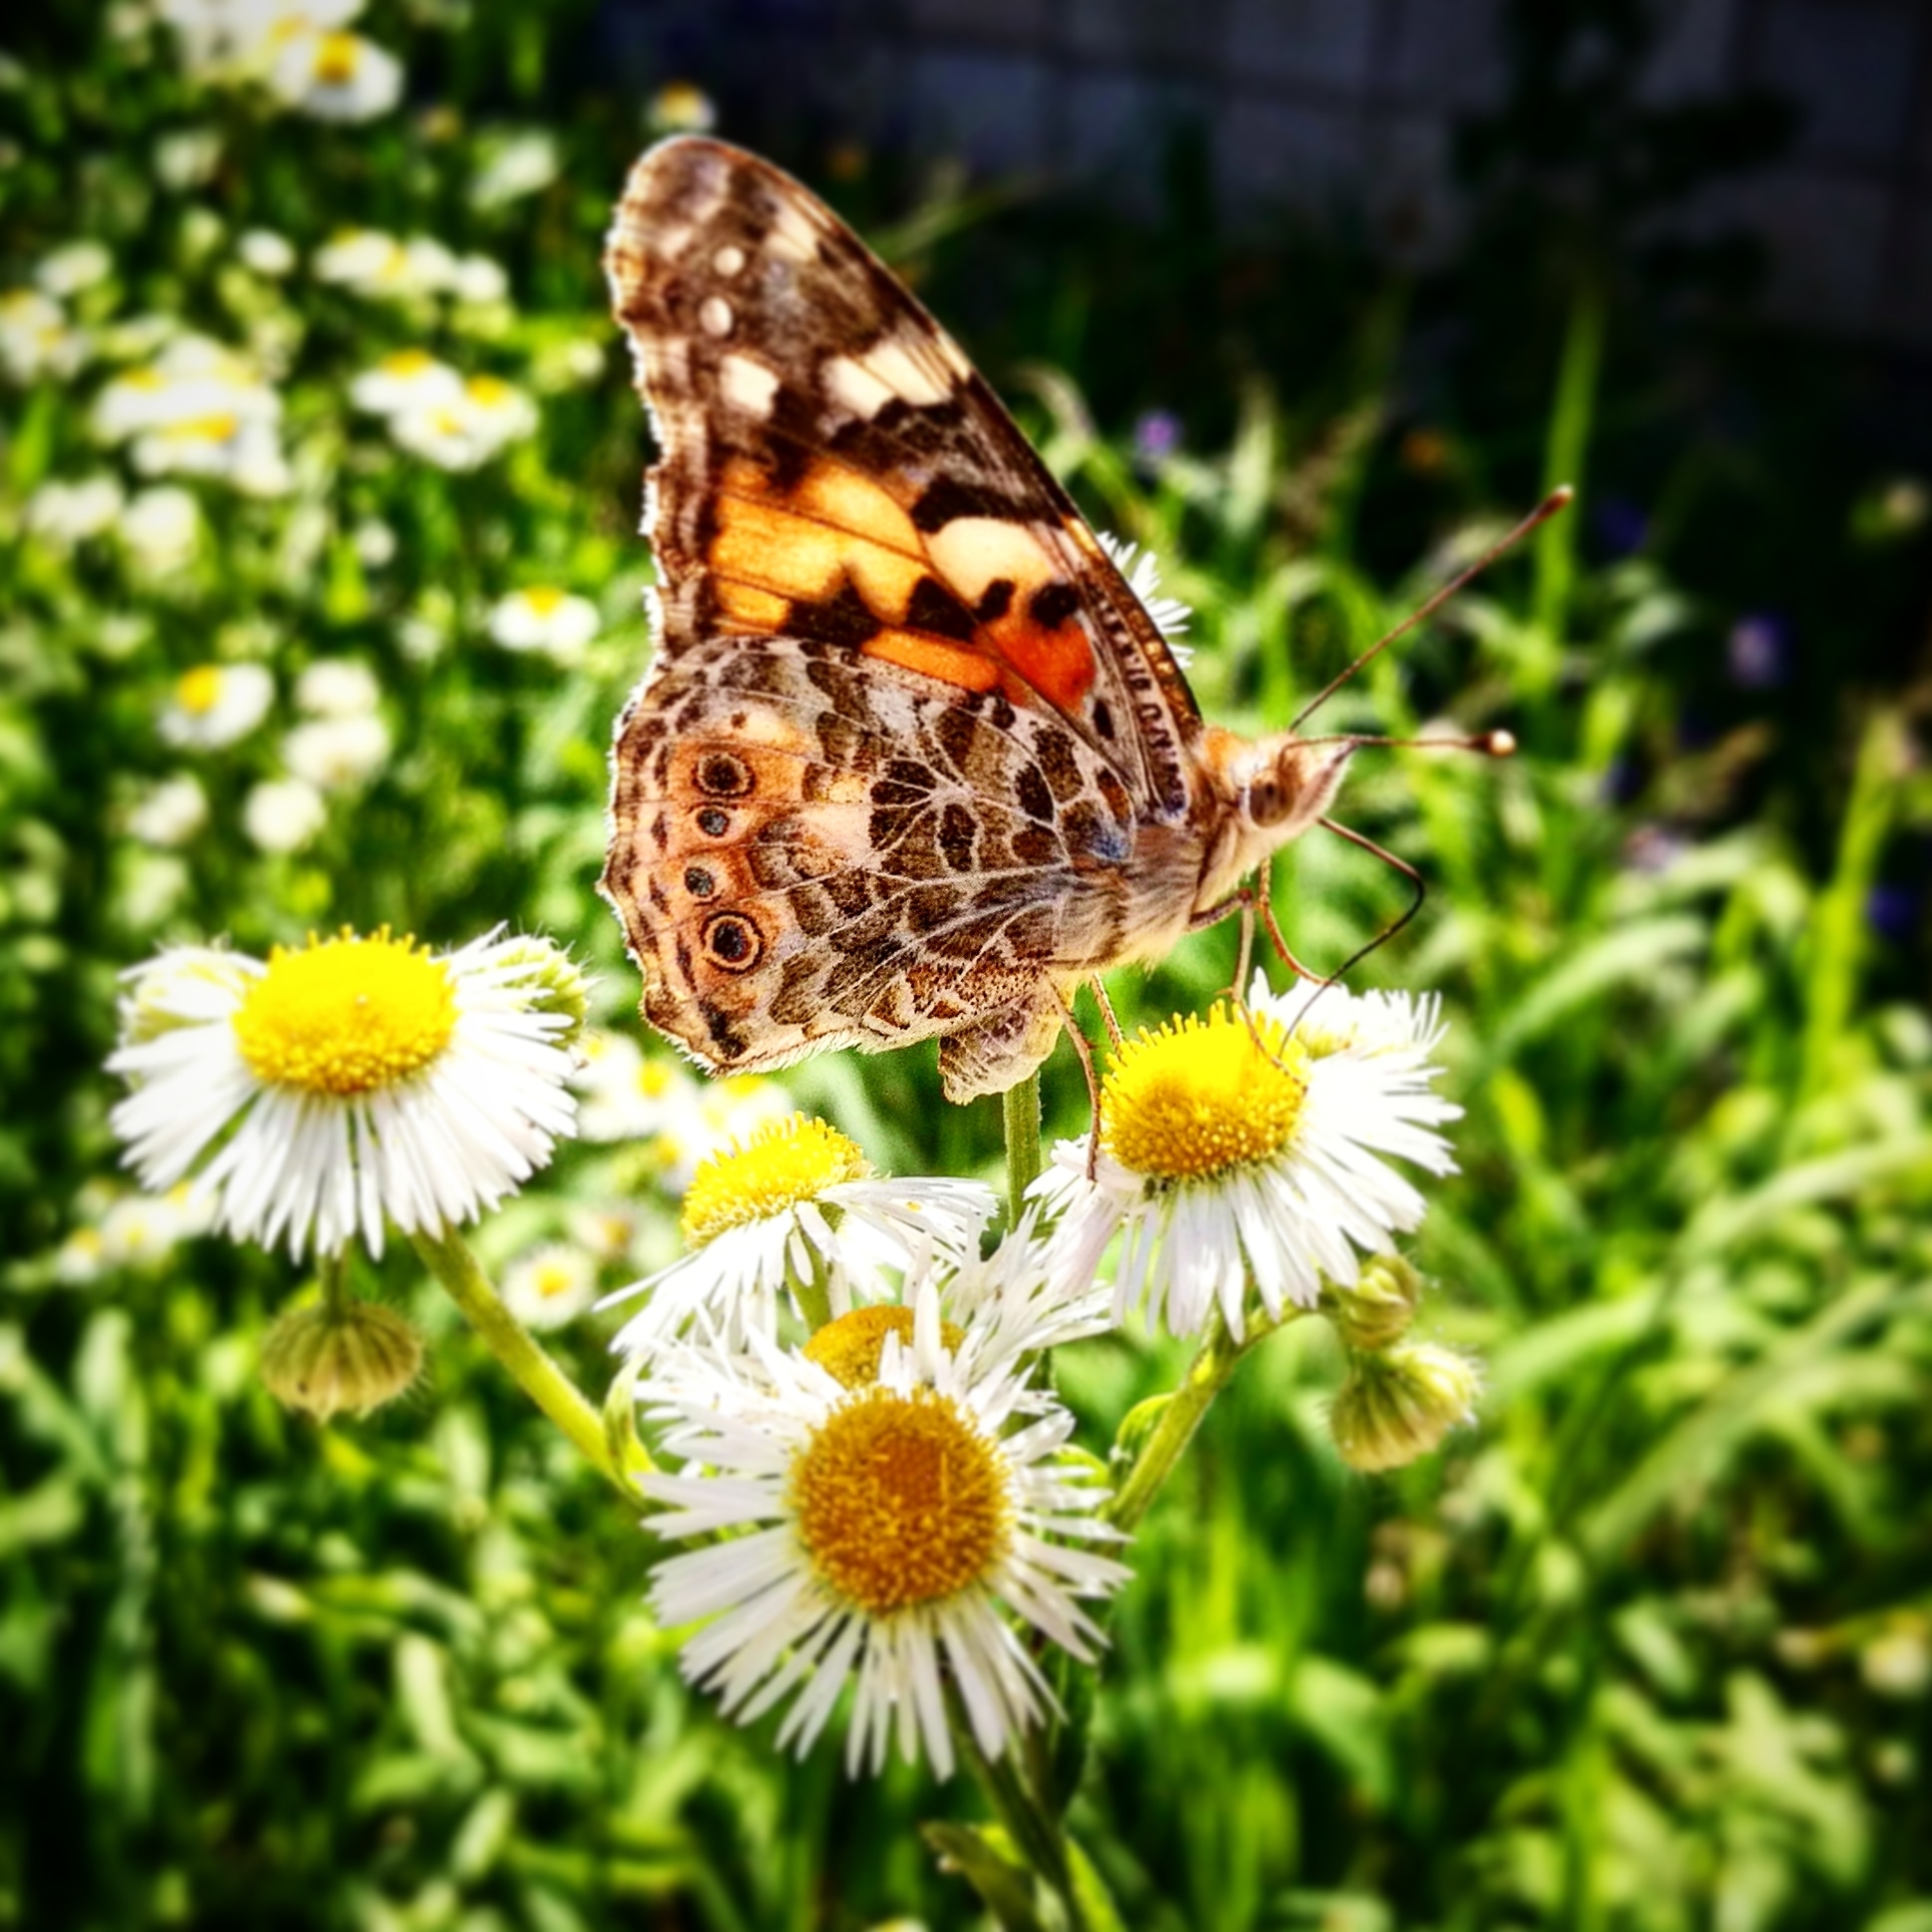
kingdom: Animalia
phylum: Arthropoda
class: Insecta
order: Lepidoptera
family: Nymphalidae
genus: Vanessa
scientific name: Vanessa cardui
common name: Painted lady
